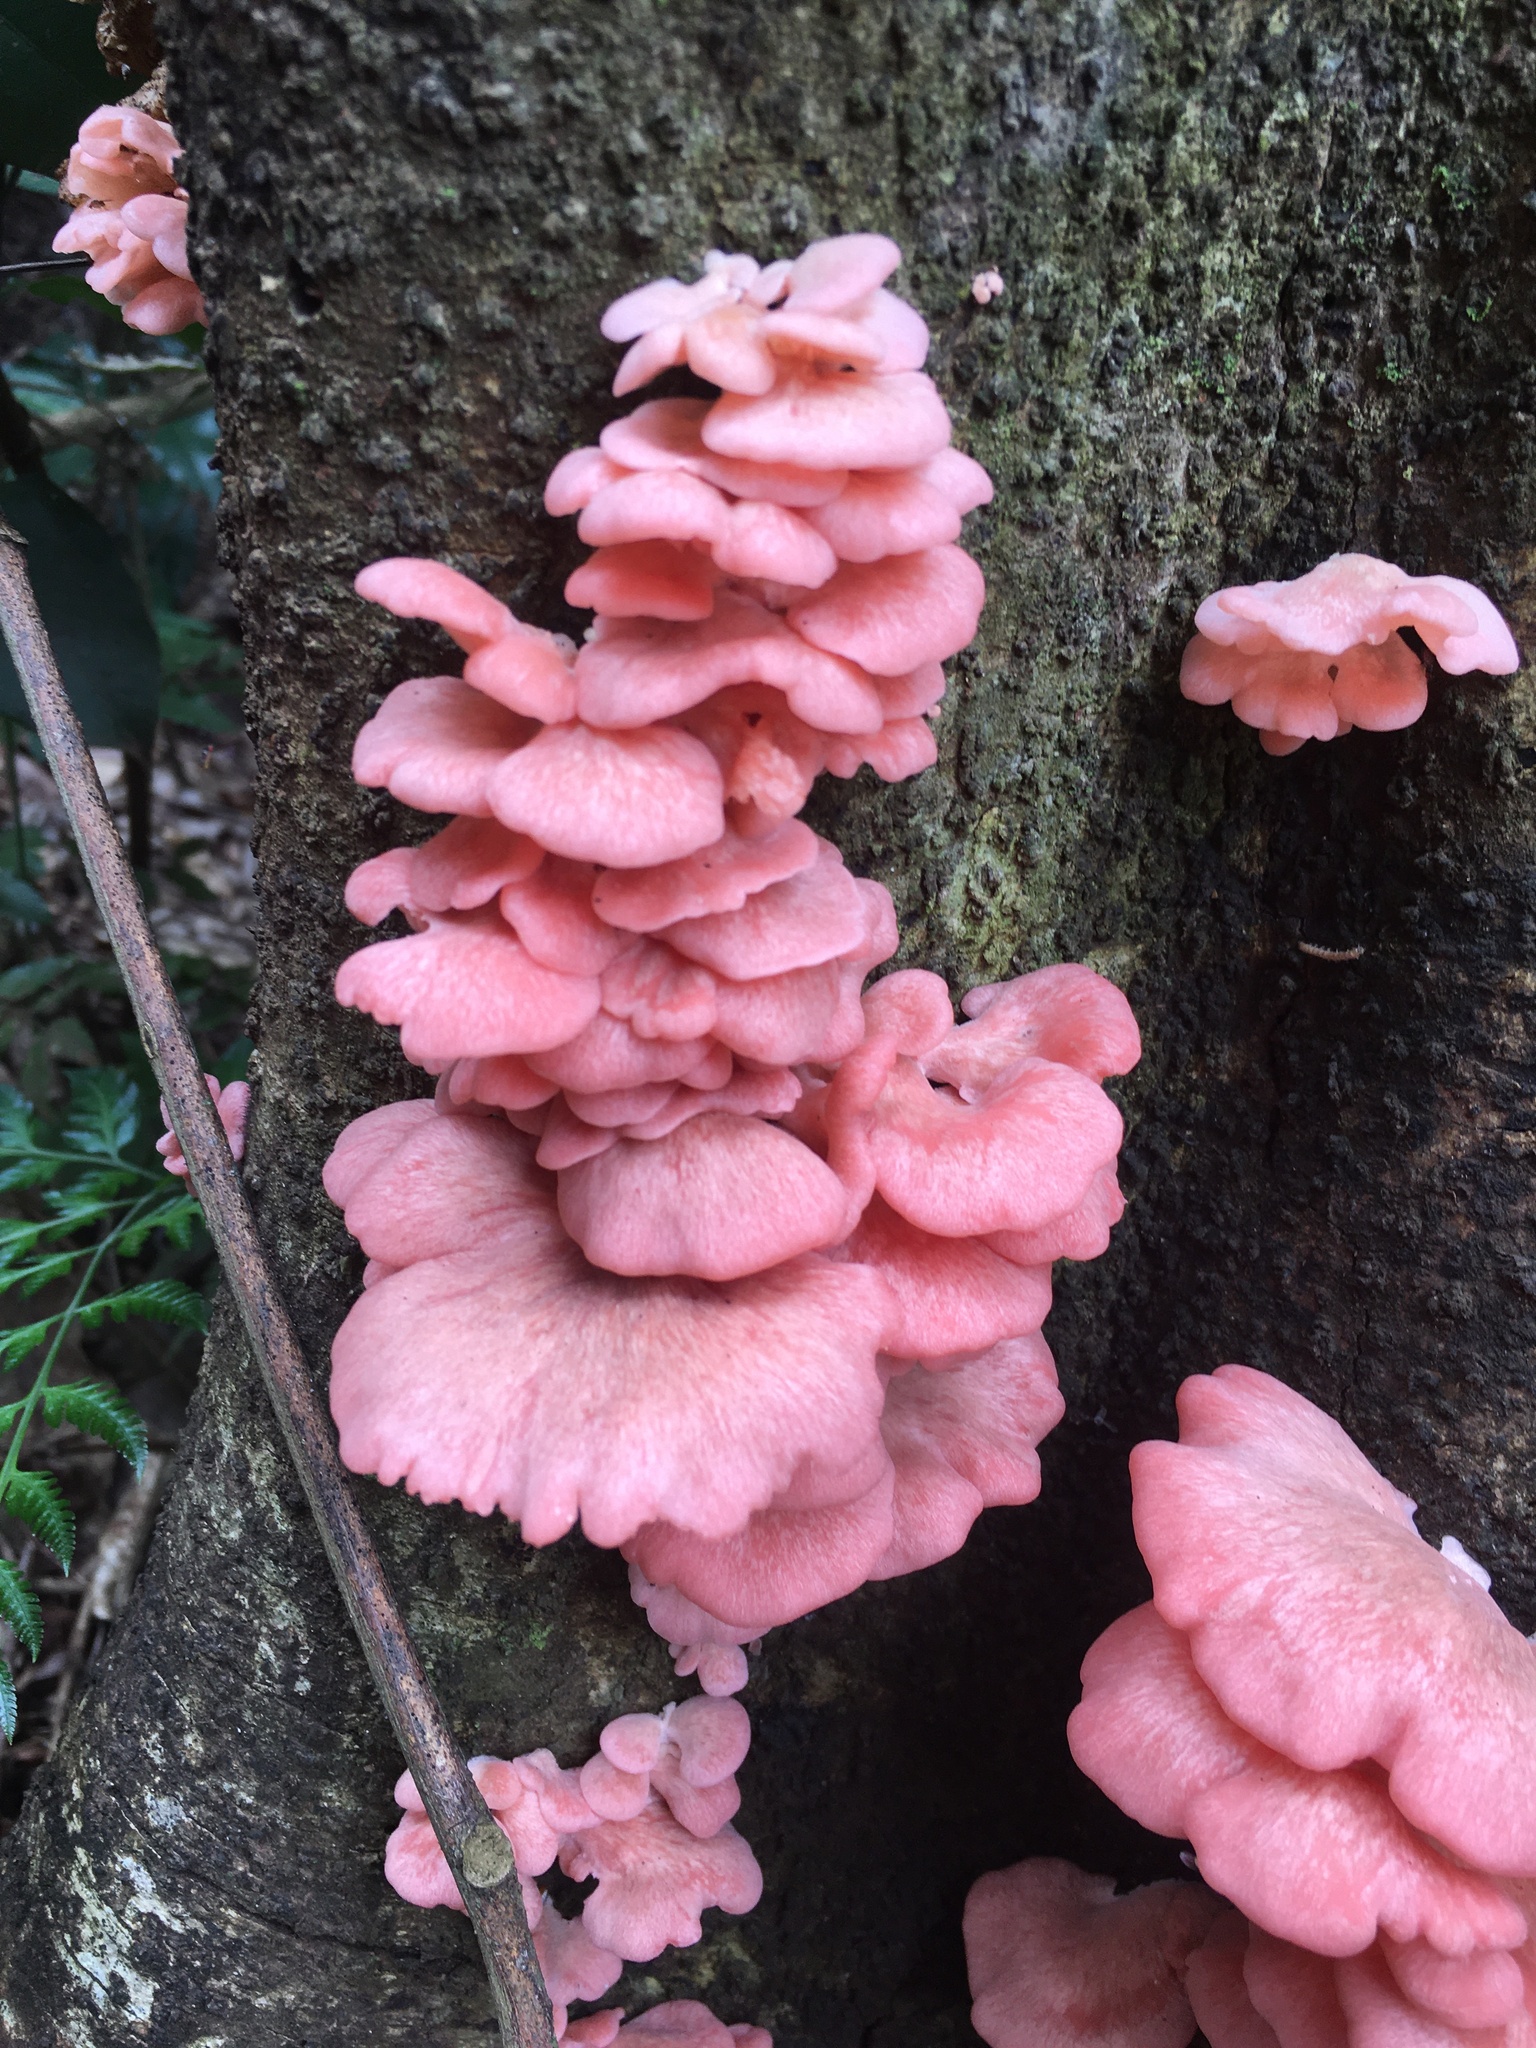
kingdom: Fungi
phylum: Basidiomycota
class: Agaricomycetes
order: Agaricales
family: Pleurotaceae
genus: Pleurotus
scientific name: Pleurotus djamor
